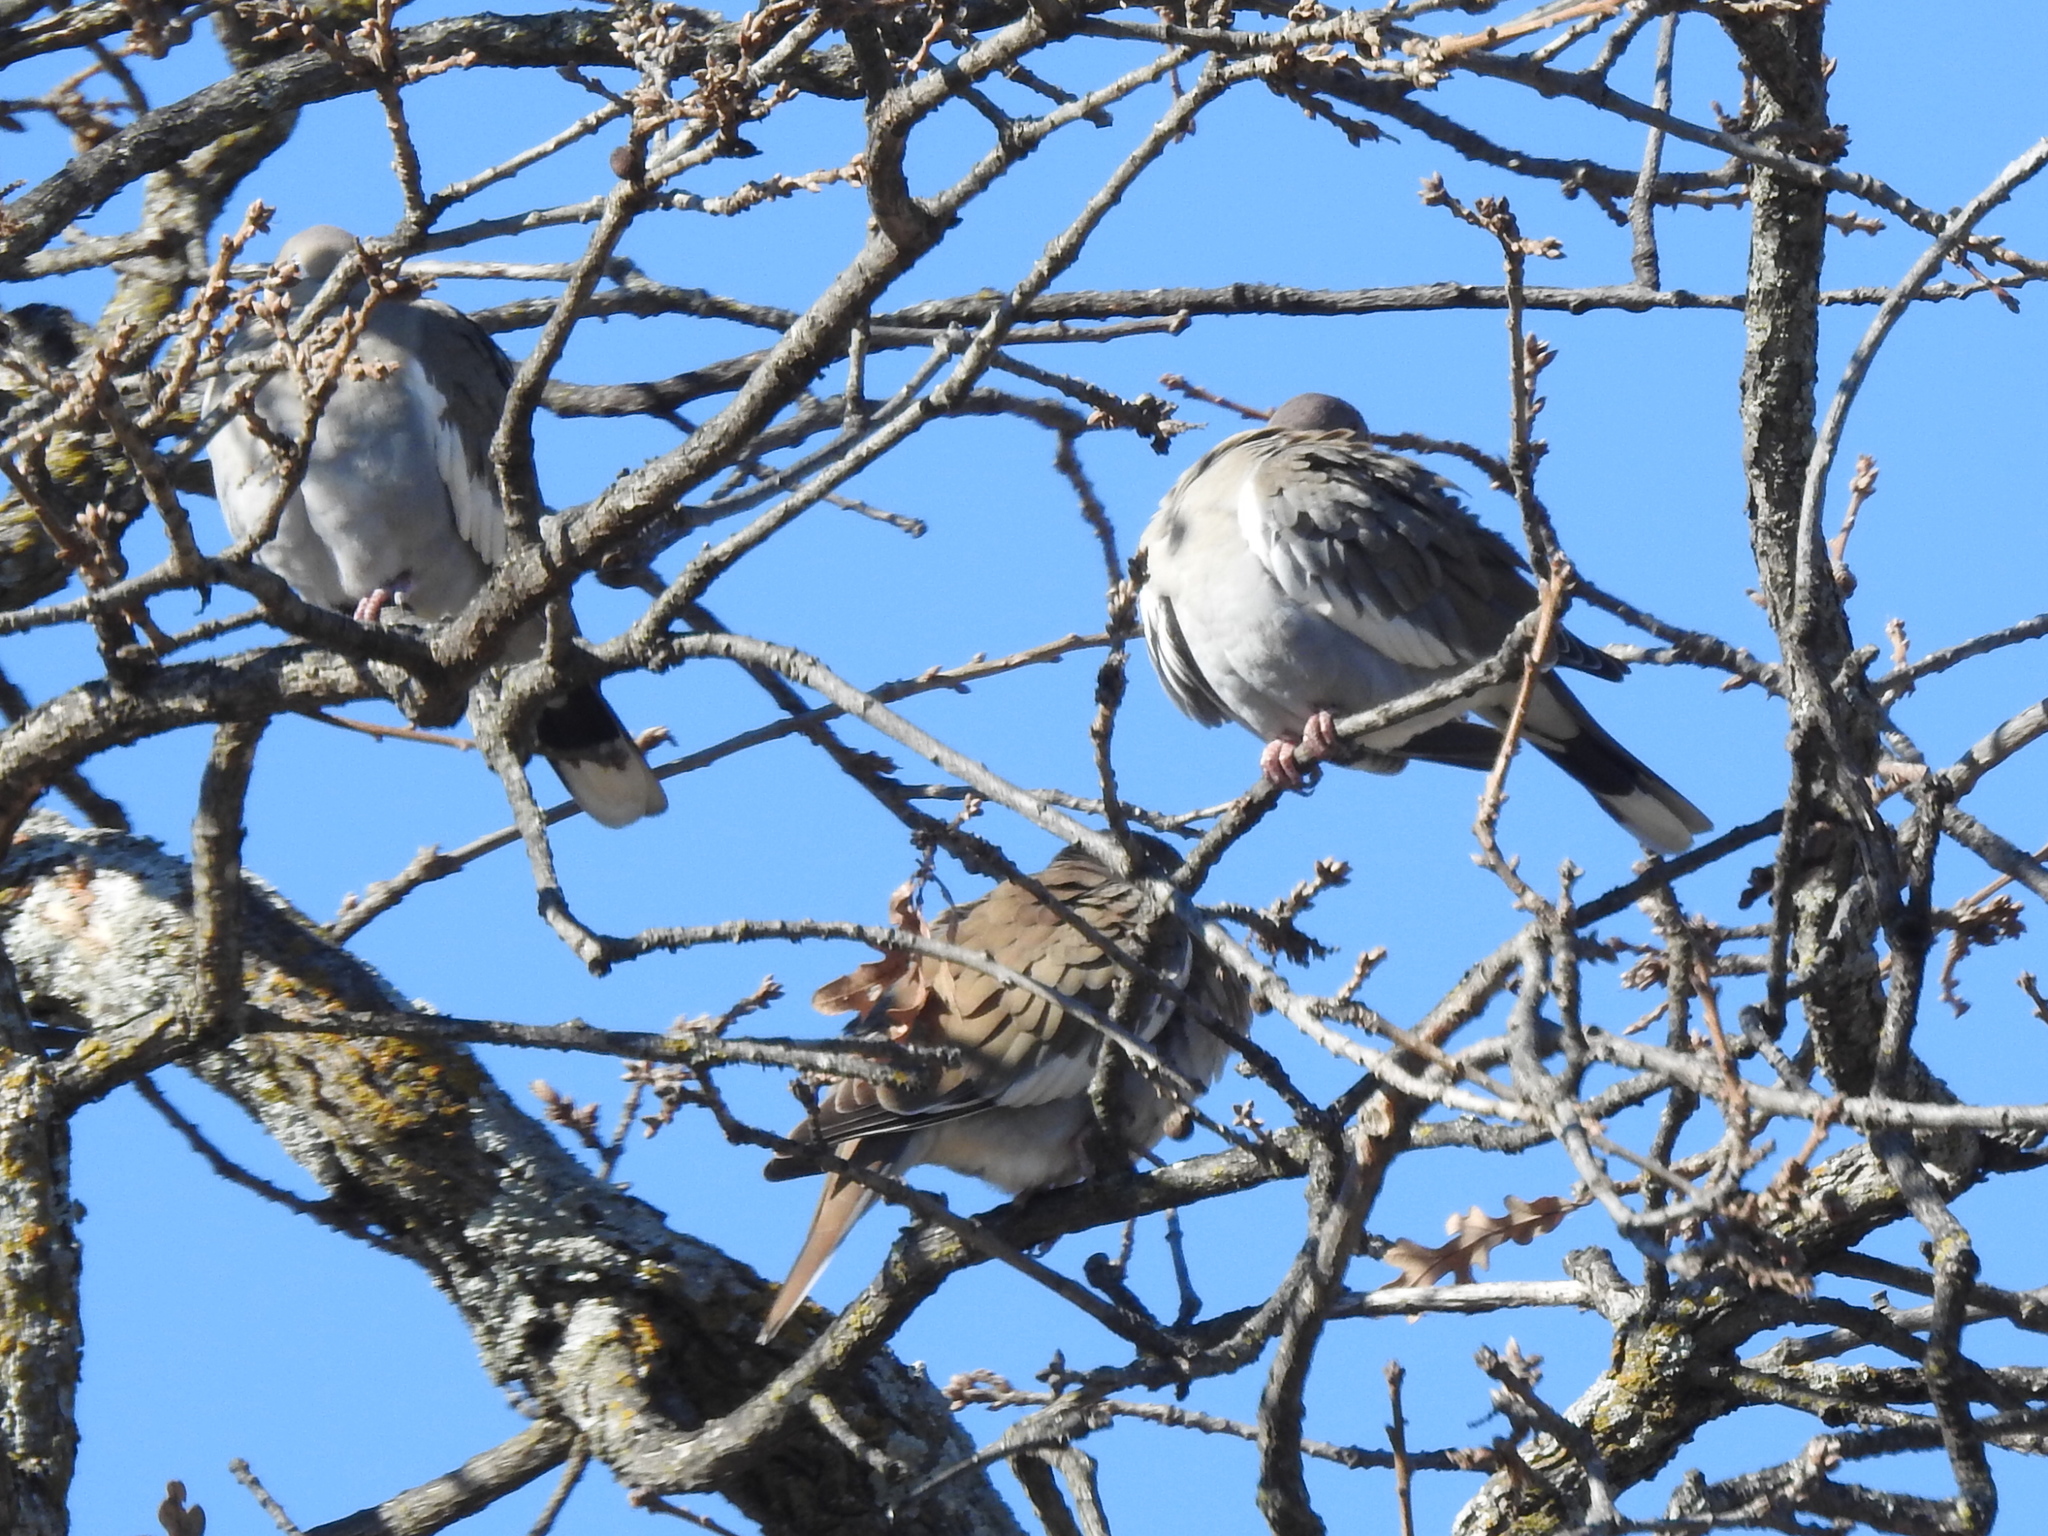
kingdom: Animalia
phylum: Chordata
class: Aves
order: Columbiformes
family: Columbidae
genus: Zenaida
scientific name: Zenaida asiatica
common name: White-winged dove
